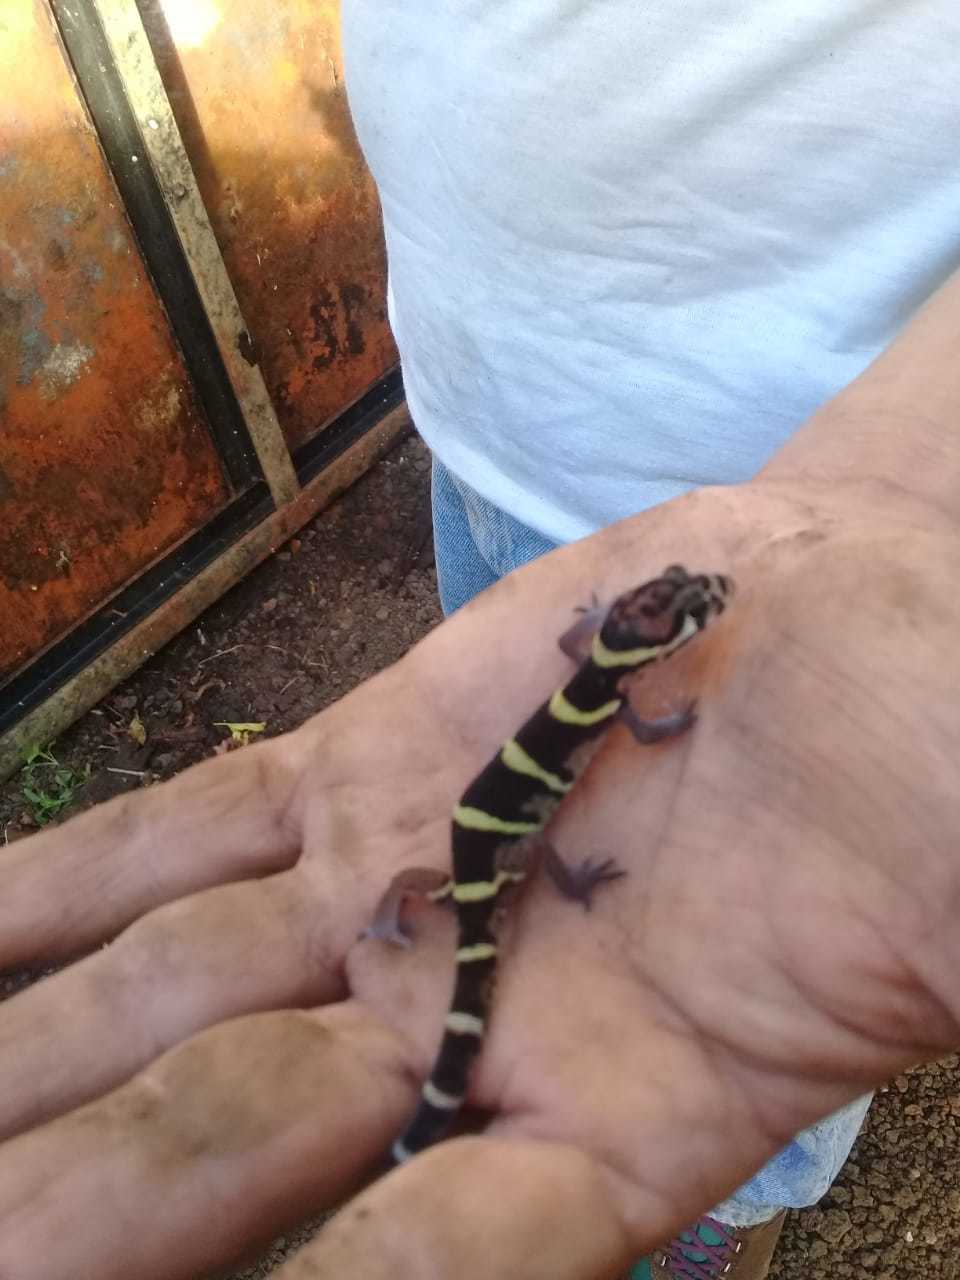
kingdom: Animalia
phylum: Chordata
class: Squamata
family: Eublepharidae
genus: Coleonyx
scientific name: Coleonyx mitratus
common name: Central american banded gecko
